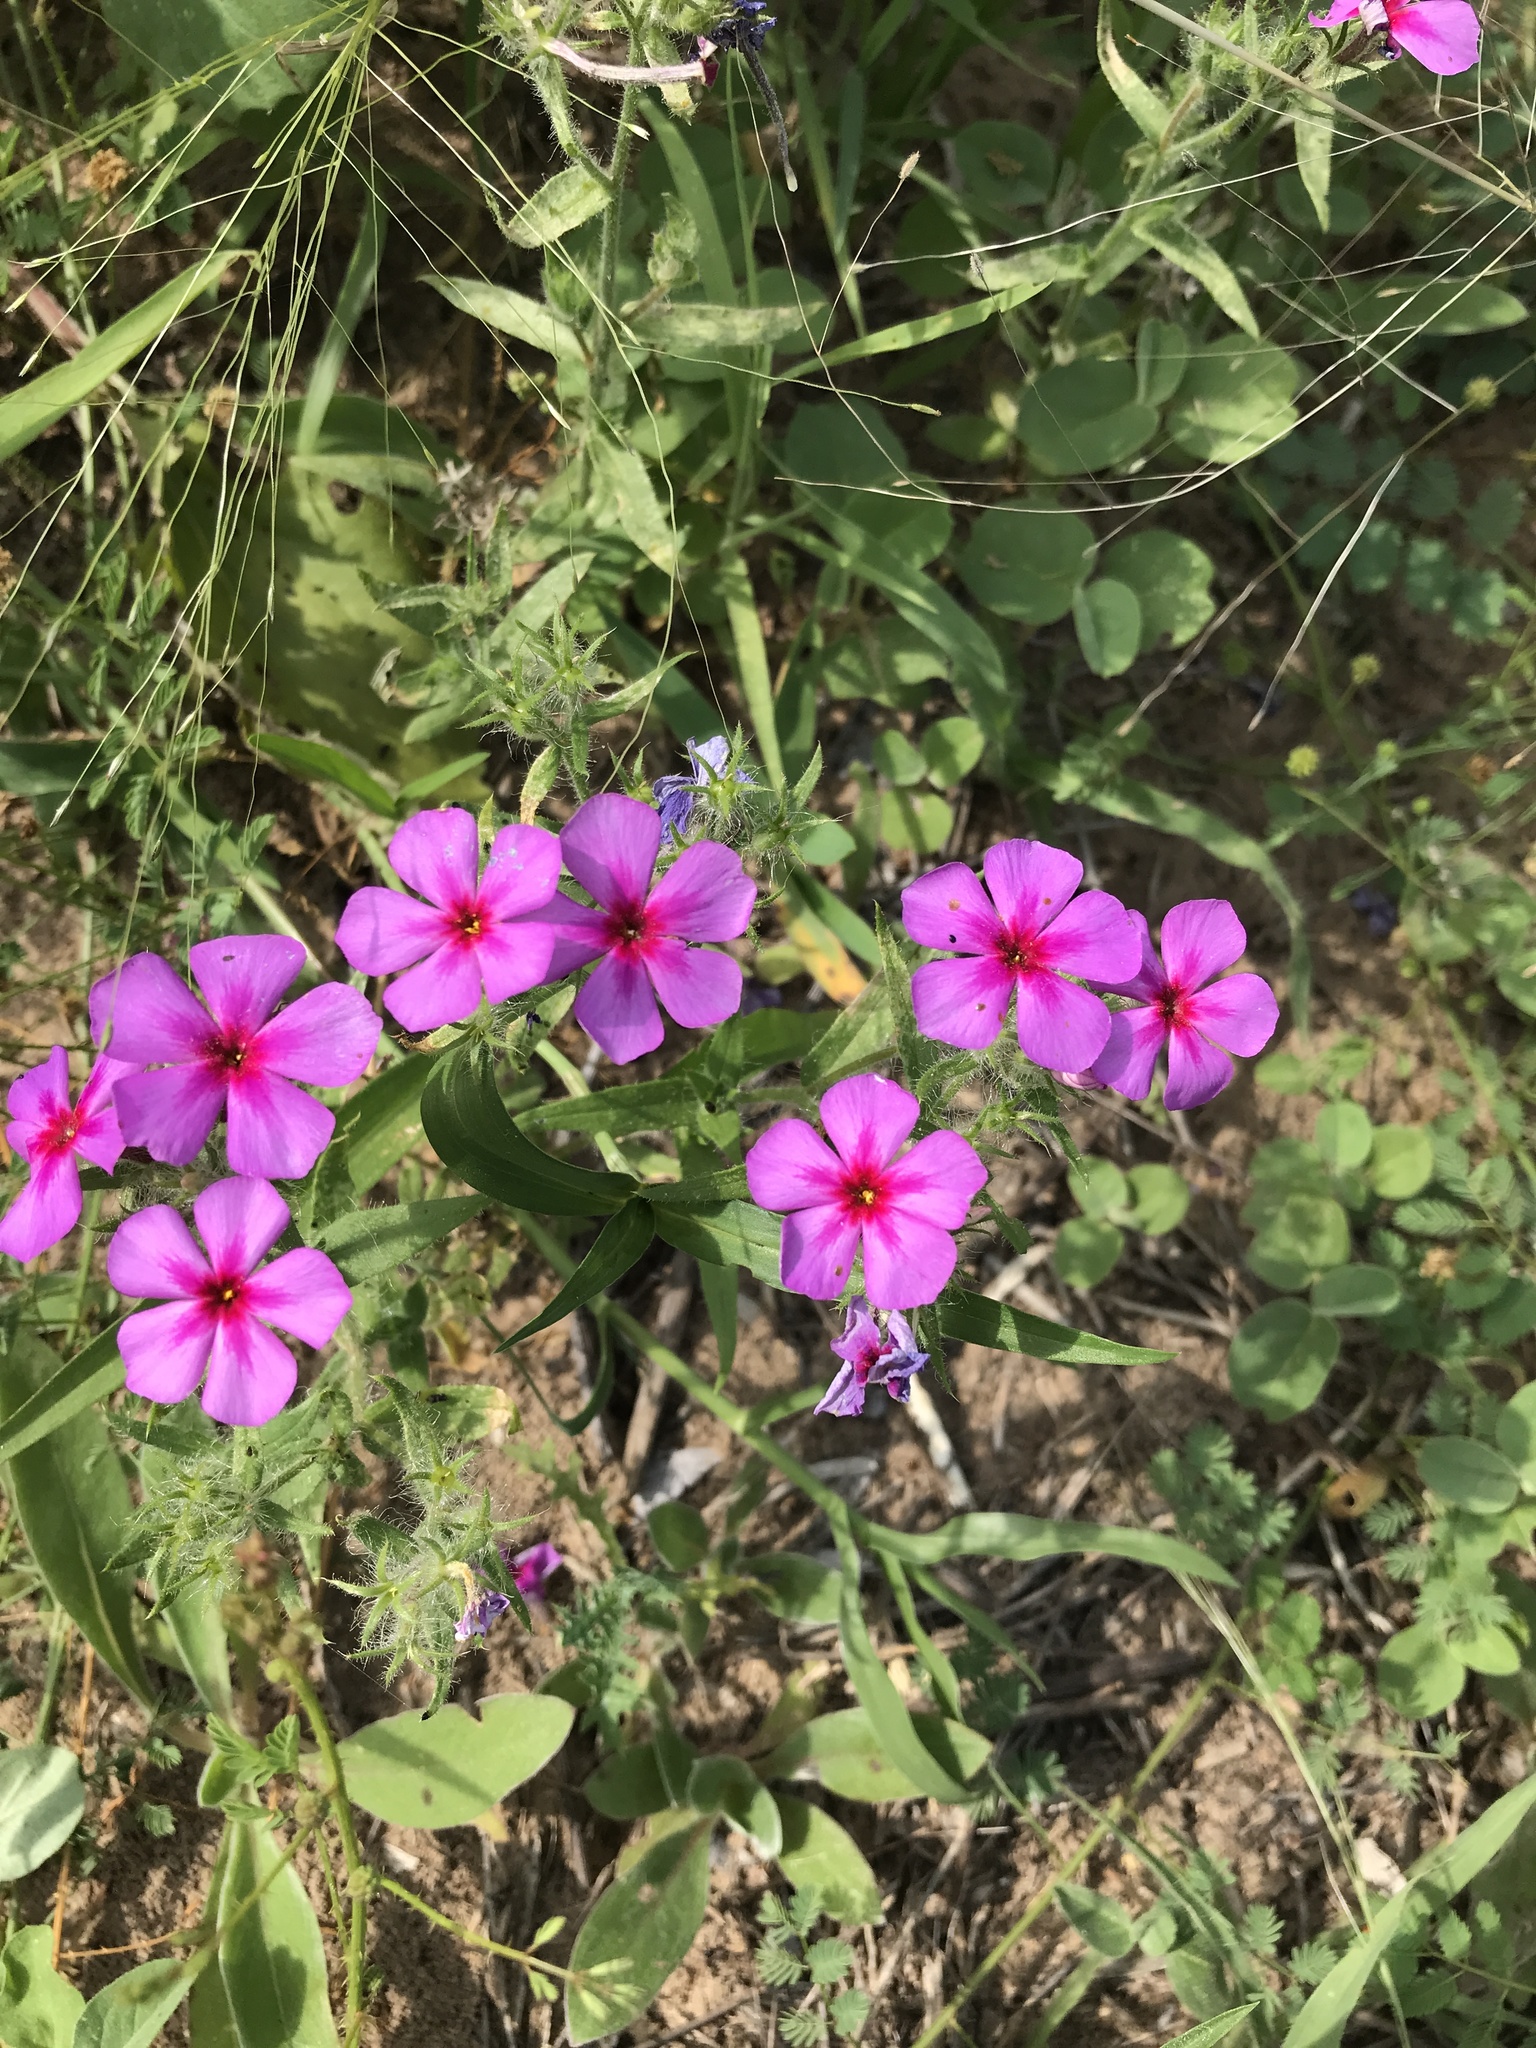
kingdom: Plantae
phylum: Tracheophyta
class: Magnoliopsida
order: Ericales
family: Polemoniaceae
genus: Phlox
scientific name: Phlox drummondii
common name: Drummond's phlox
